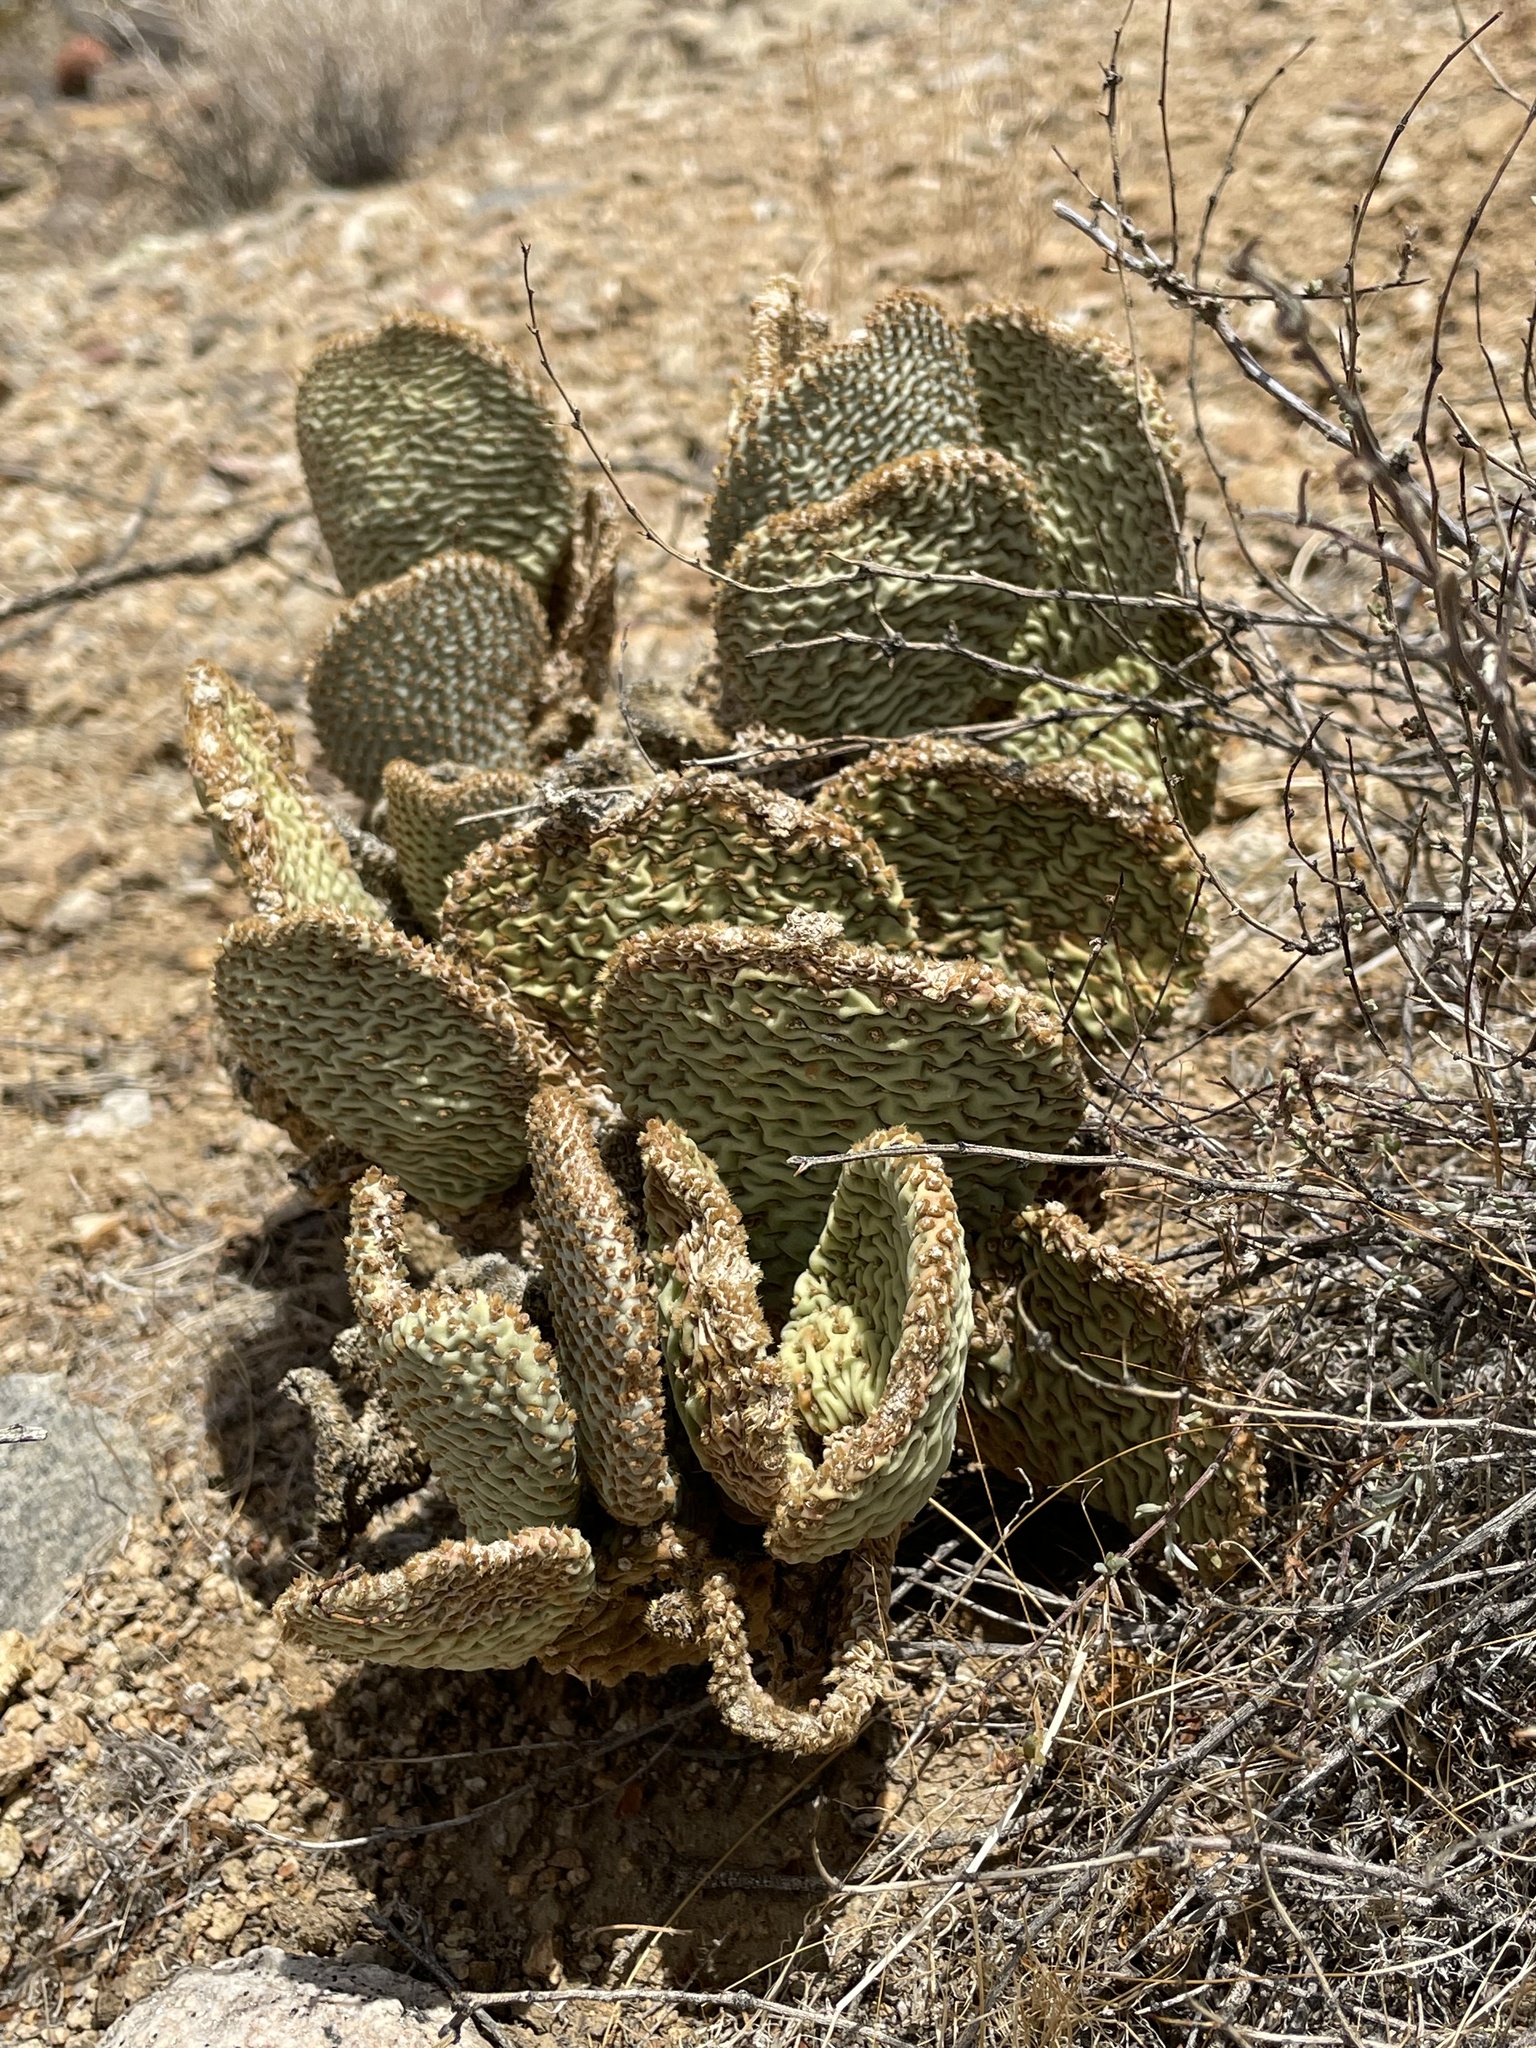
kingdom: Plantae
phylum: Tracheophyta
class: Magnoliopsida
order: Caryophyllales
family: Cactaceae
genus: Opuntia
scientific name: Opuntia basilaris
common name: Beavertail prickly-pear
